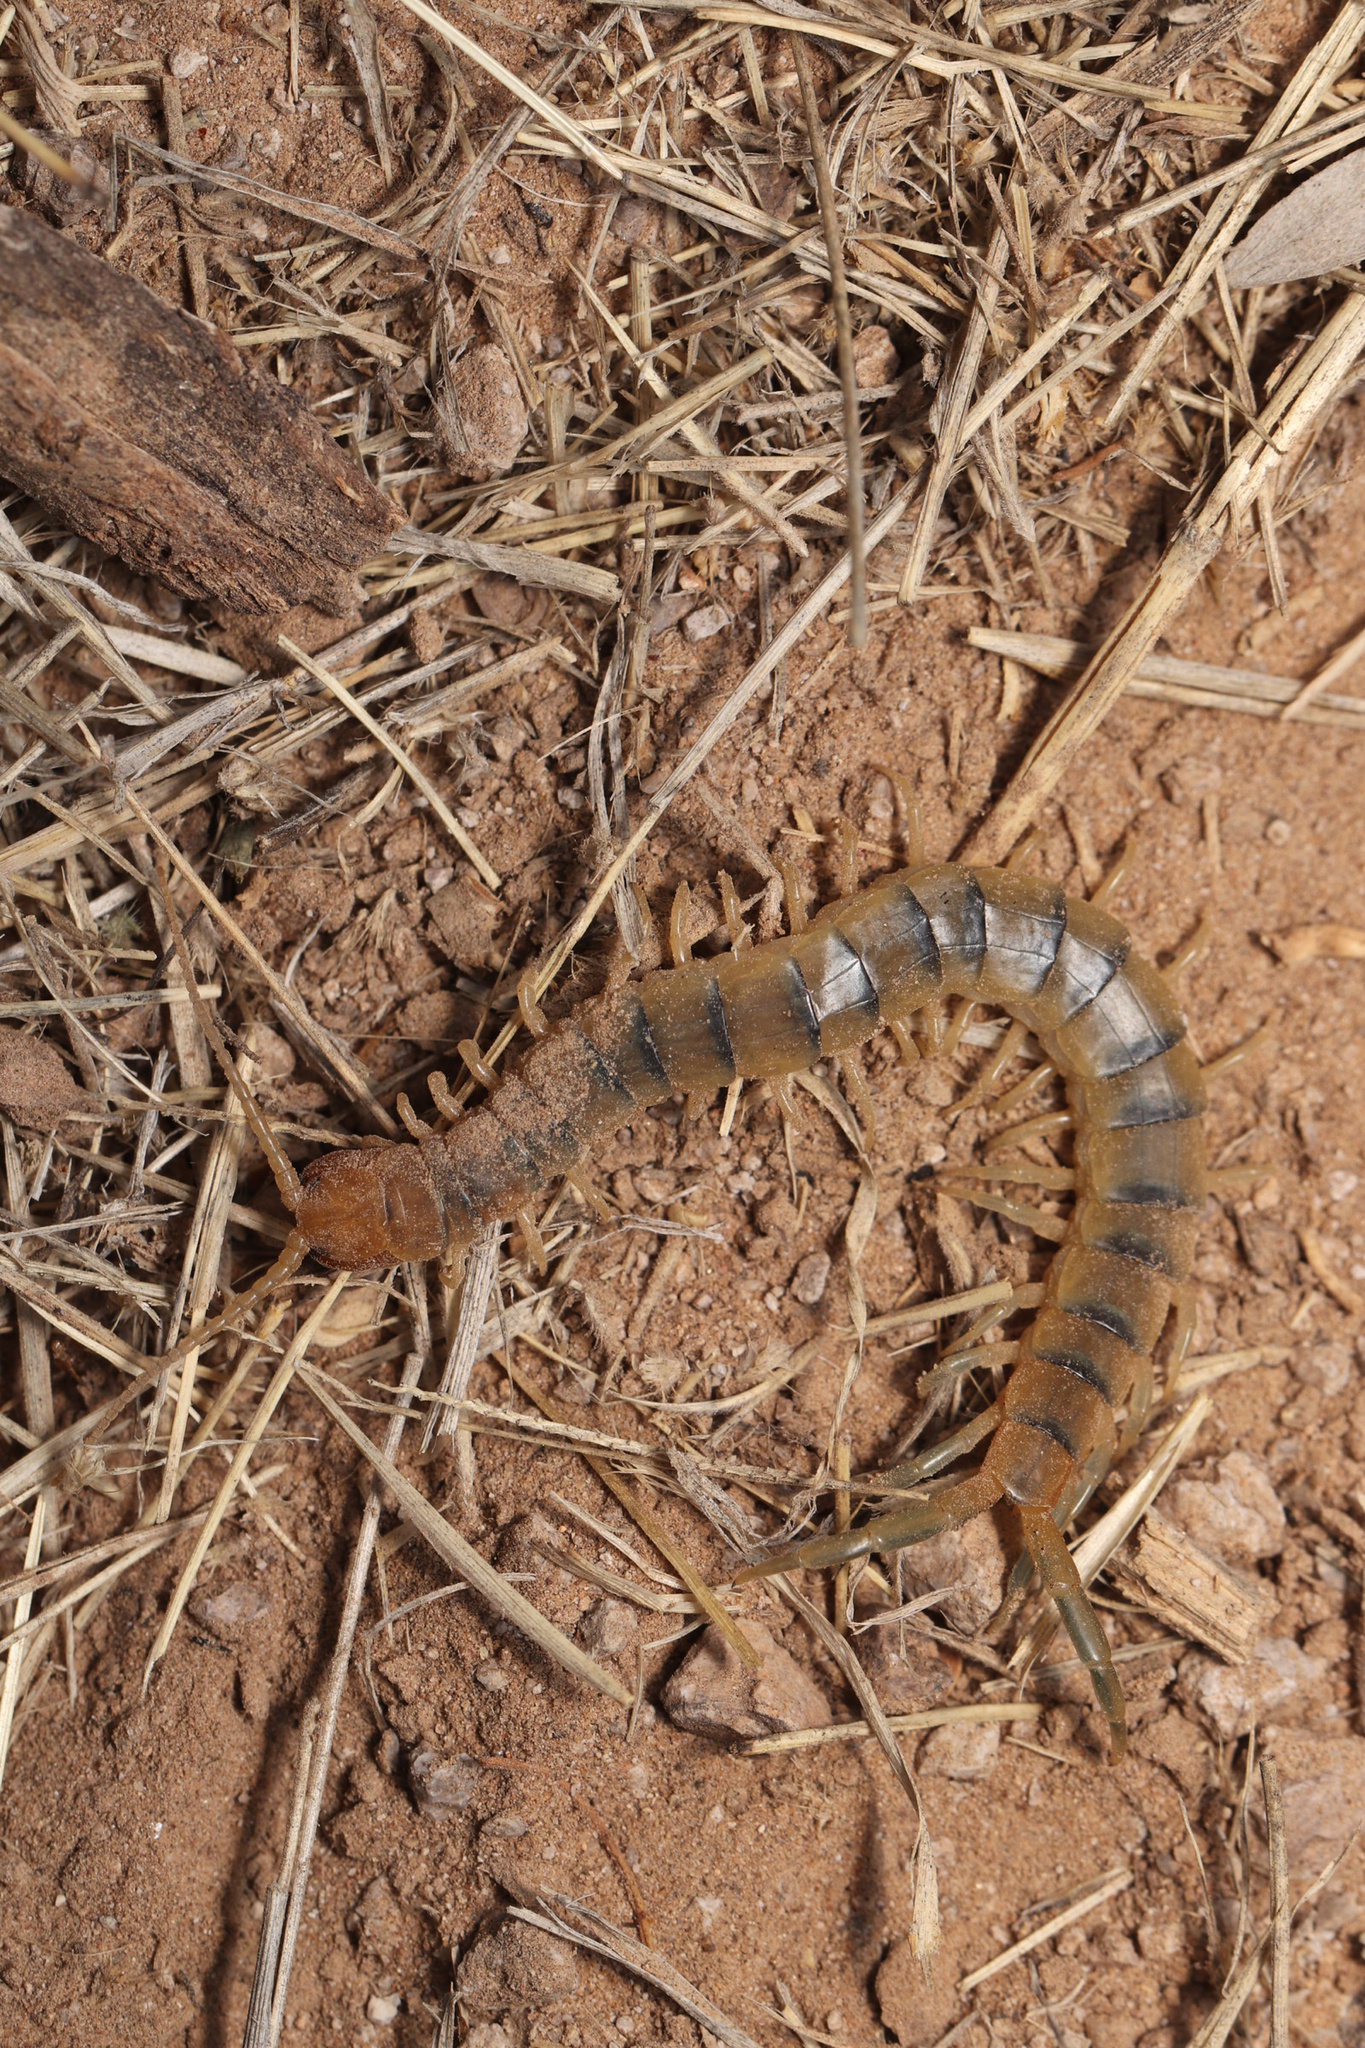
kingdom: Animalia
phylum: Arthropoda
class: Chilopoda
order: Scolopendromorpha
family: Scolopendridae
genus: Scolopendra
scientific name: Scolopendra polymorpha
